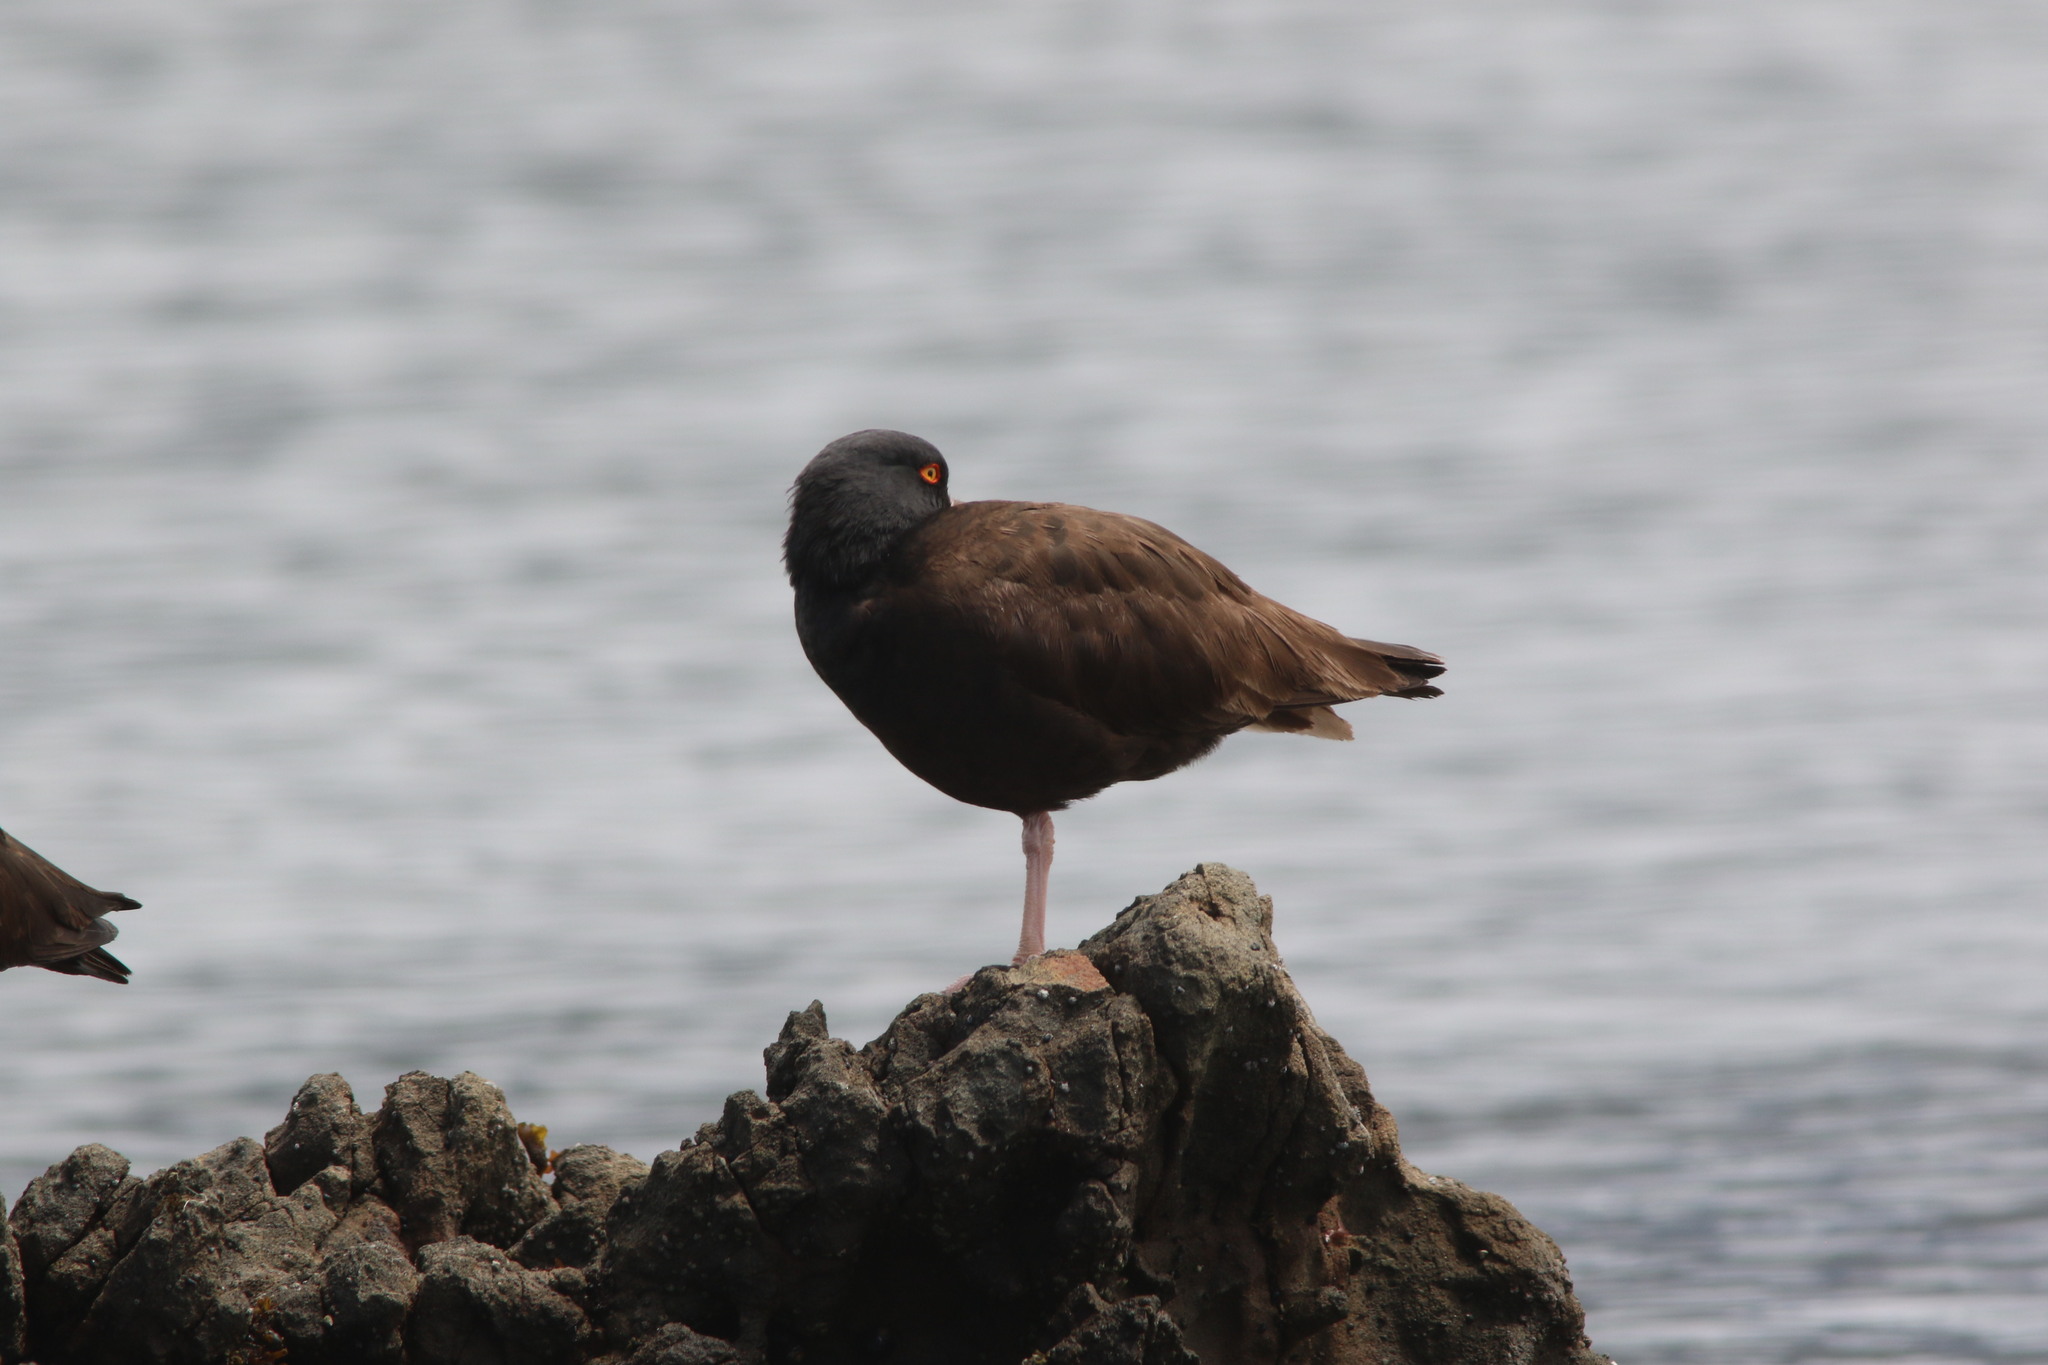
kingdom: Animalia
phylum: Chordata
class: Aves
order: Charadriiformes
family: Haematopodidae
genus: Haematopus
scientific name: Haematopus bachmani
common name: Black oystercatcher
